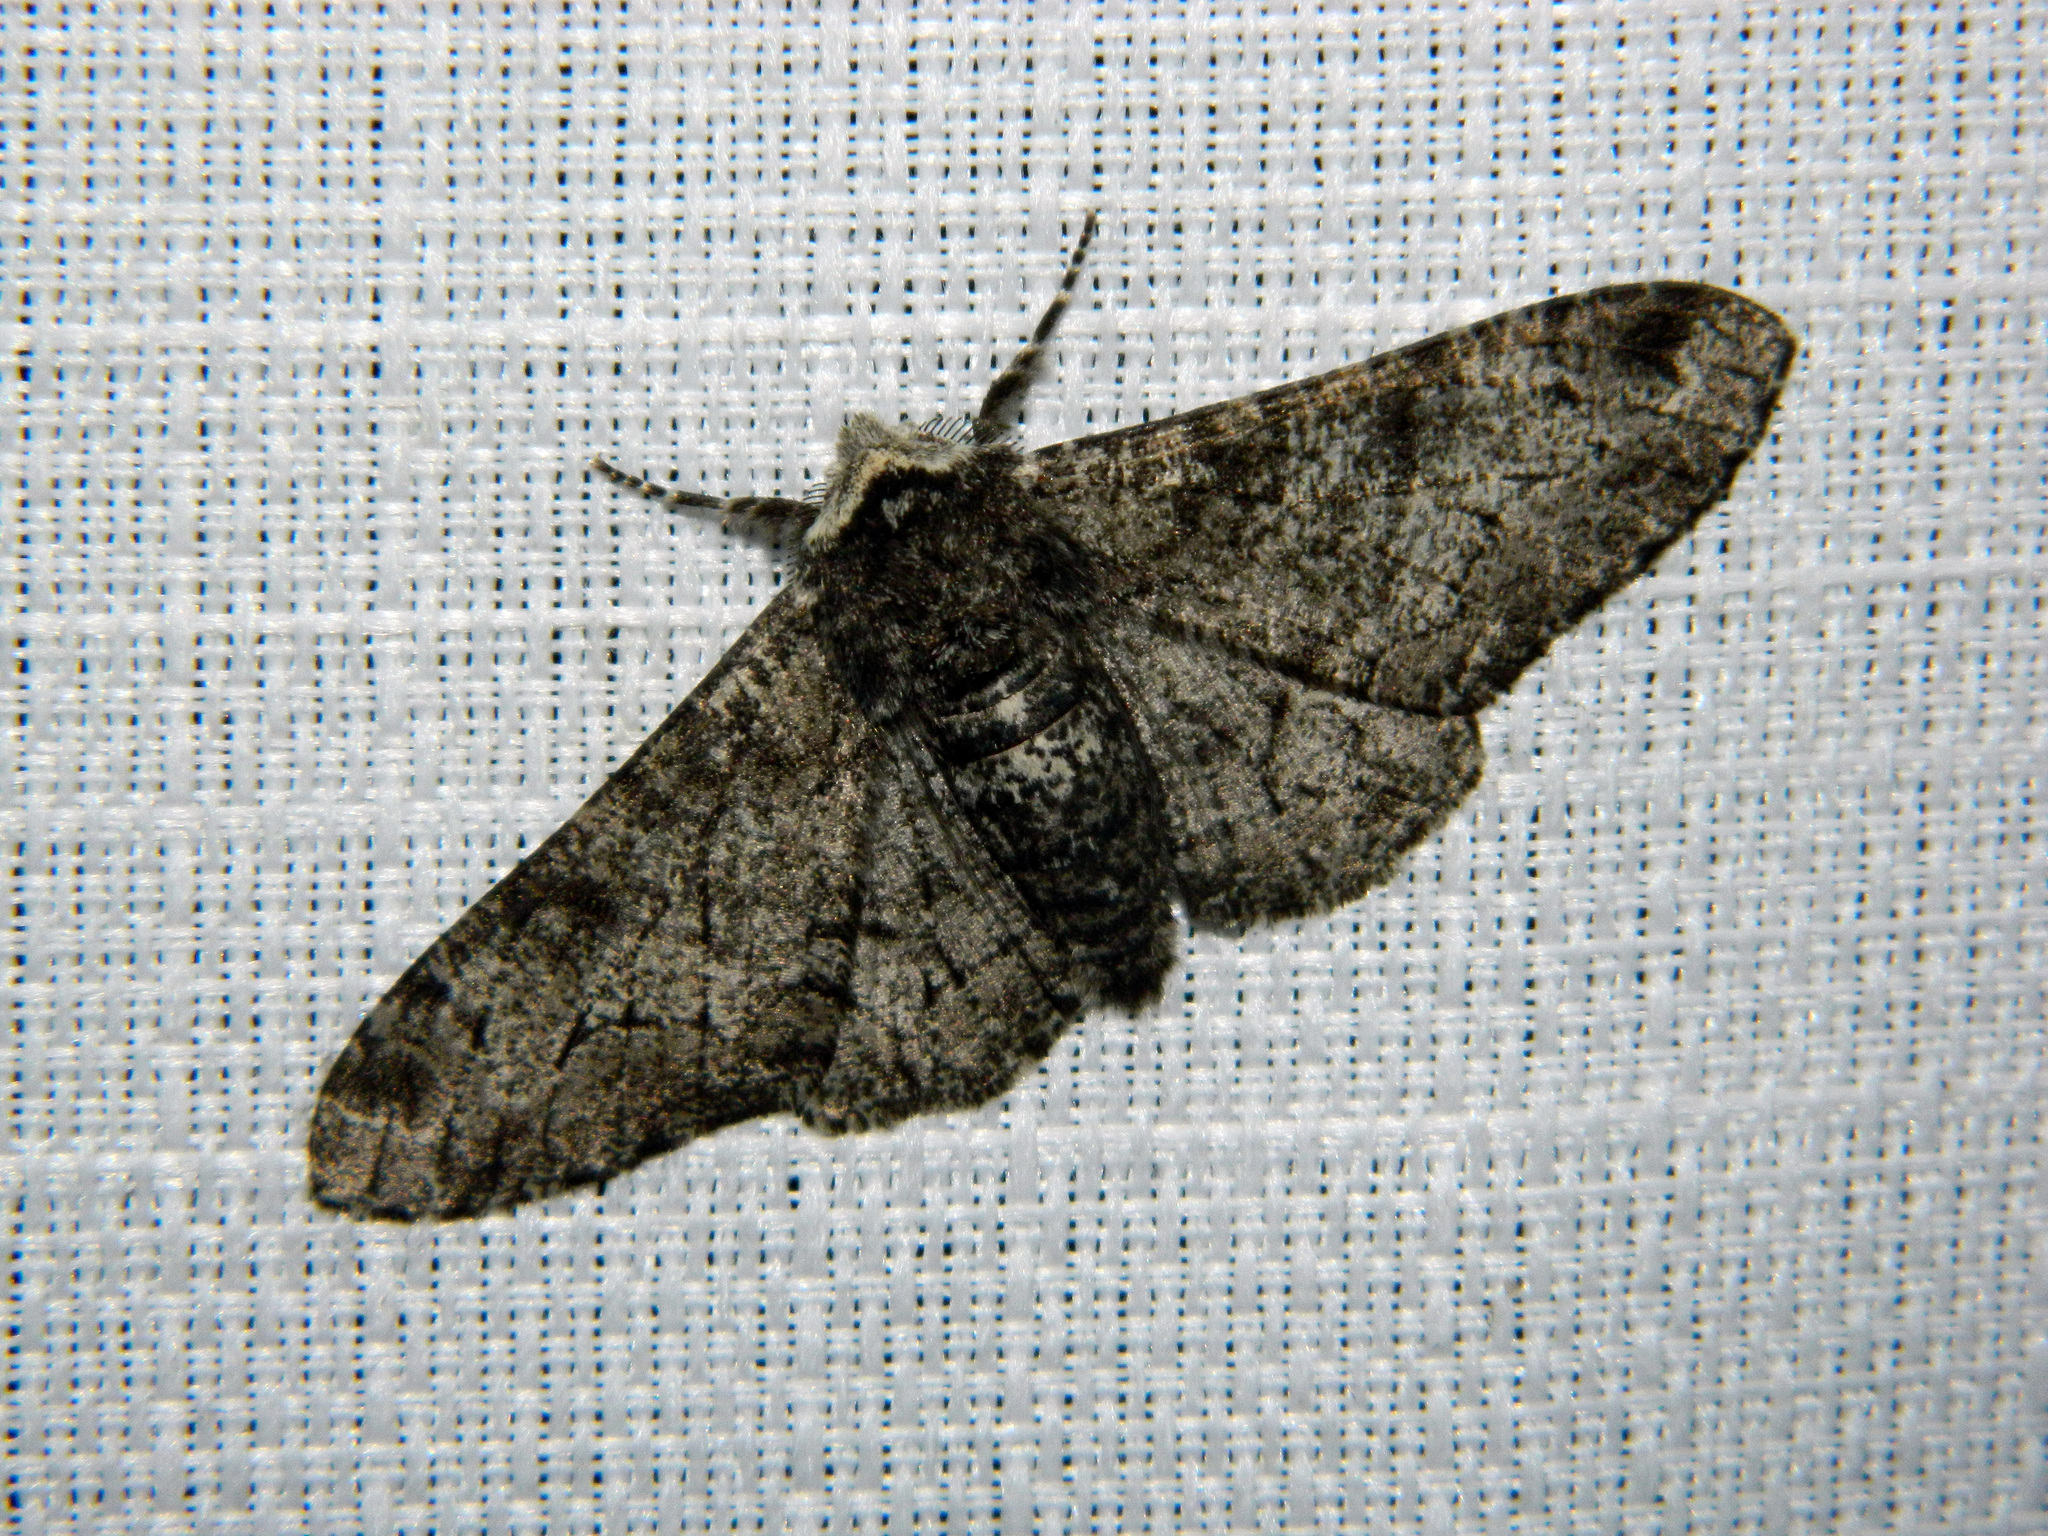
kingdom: Animalia
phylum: Arthropoda
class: Insecta
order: Lepidoptera
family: Geometridae
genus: Biston
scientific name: Biston betularia
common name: Peppered moth
